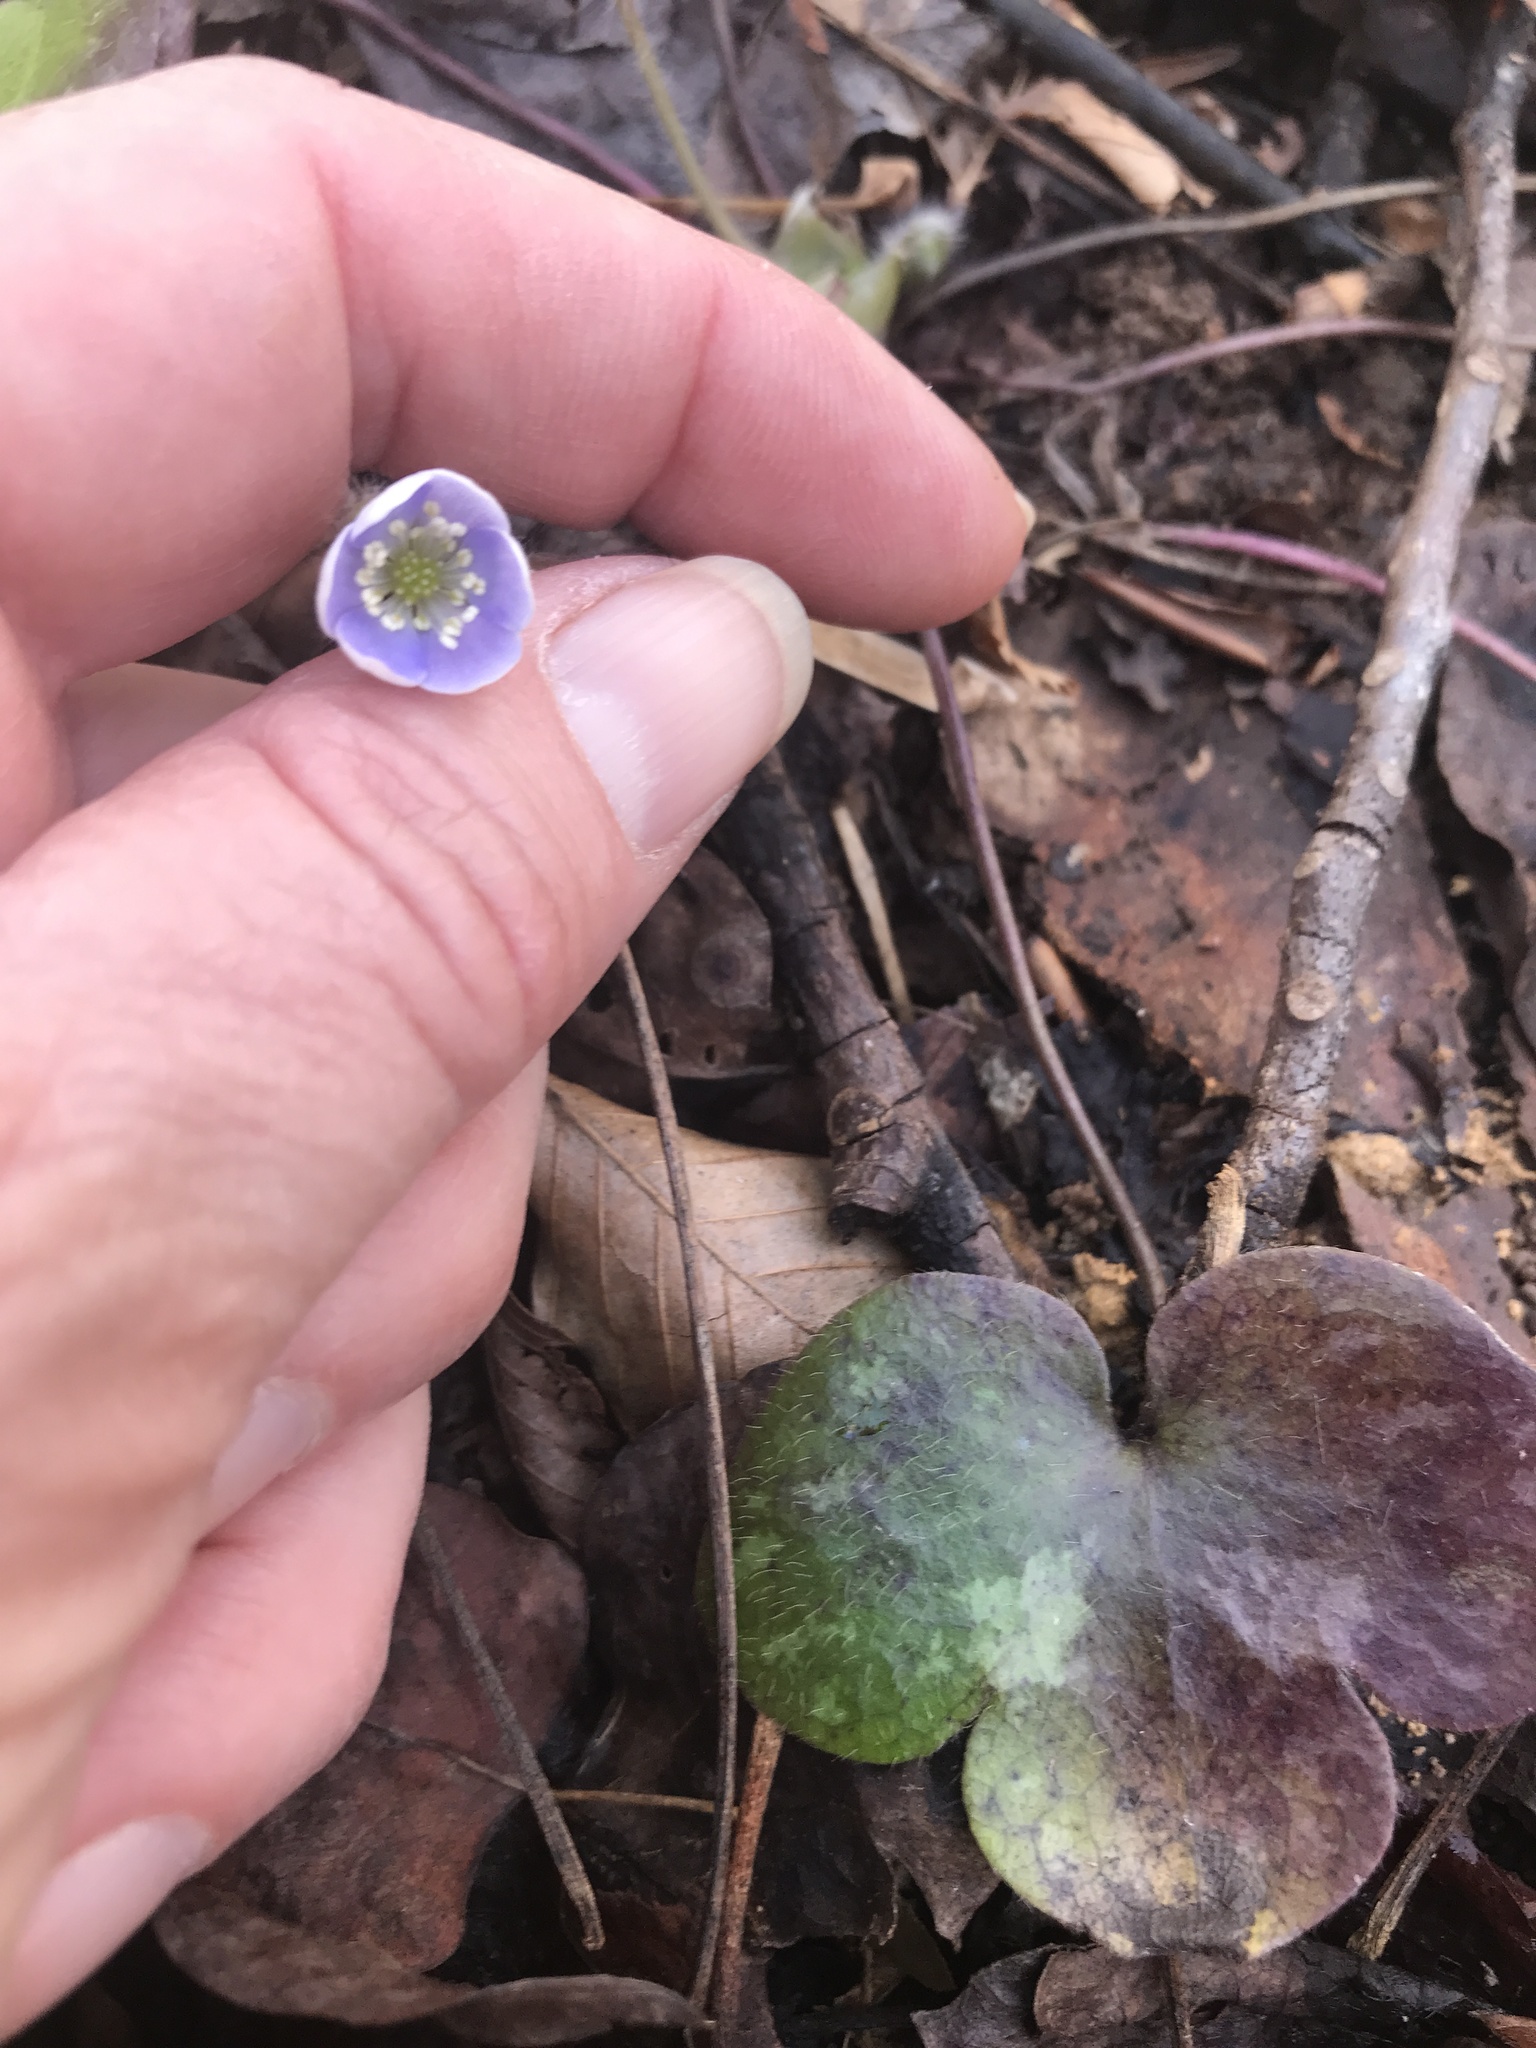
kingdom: Plantae
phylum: Tracheophyta
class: Magnoliopsida
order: Ranunculales
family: Ranunculaceae
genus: Hepatica
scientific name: Hepatica americana
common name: American hepatica
